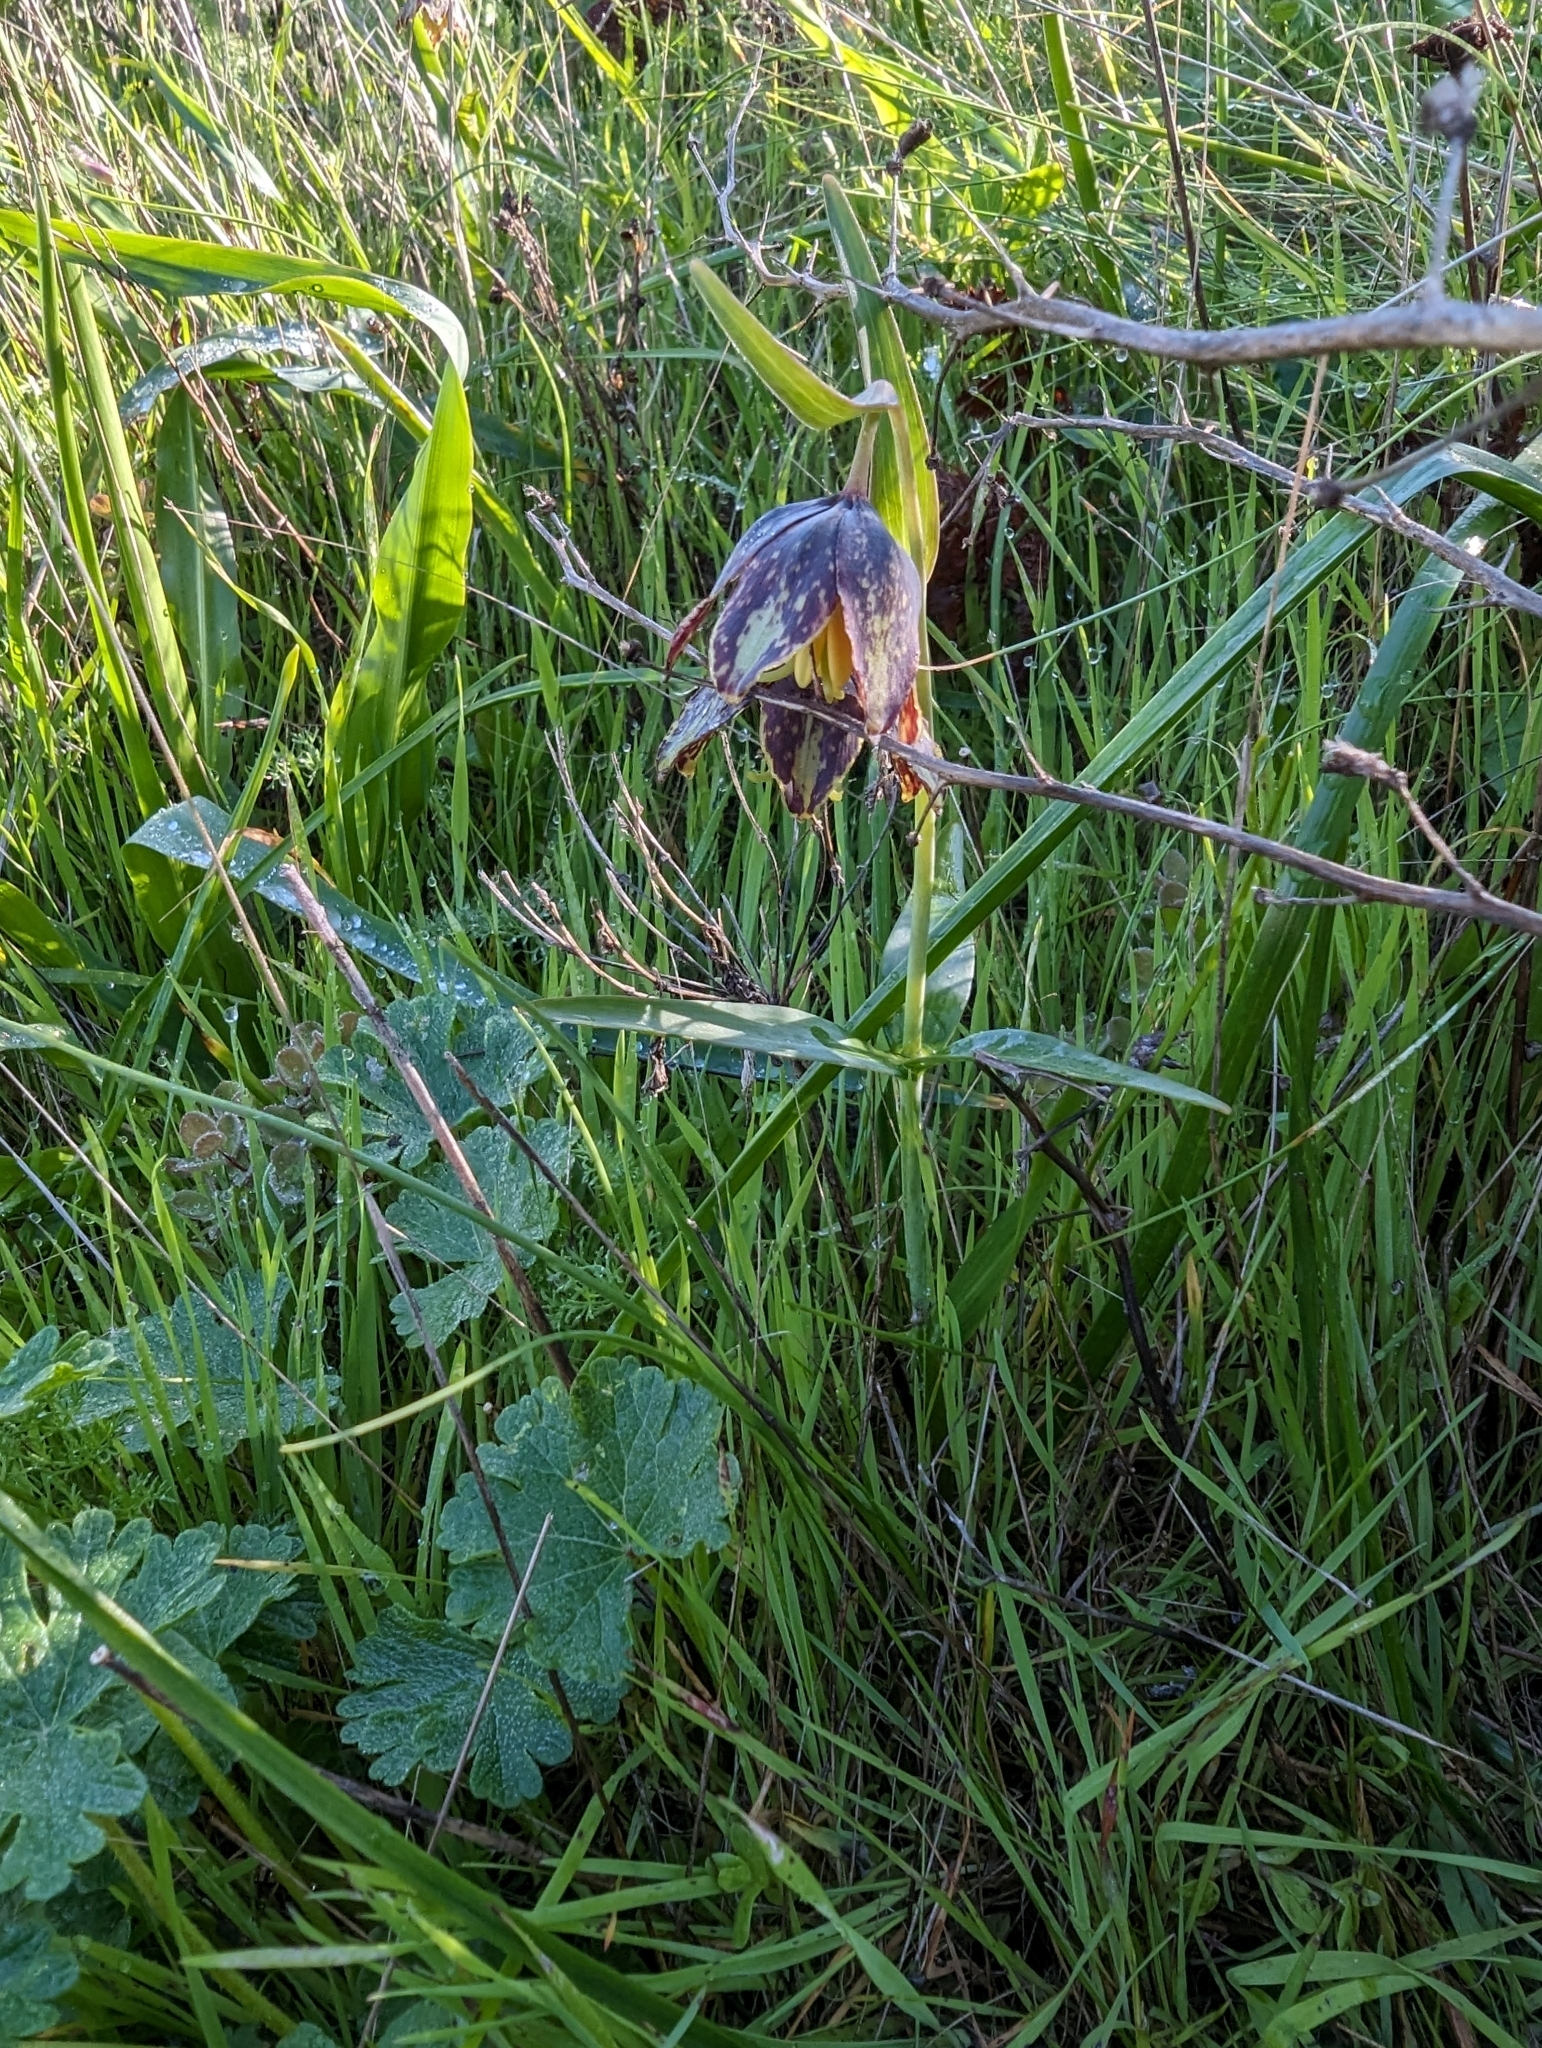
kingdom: Plantae
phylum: Tracheophyta
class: Liliopsida
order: Liliales
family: Liliaceae
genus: Fritillaria
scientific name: Fritillaria affinis
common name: Ojai fritillary
